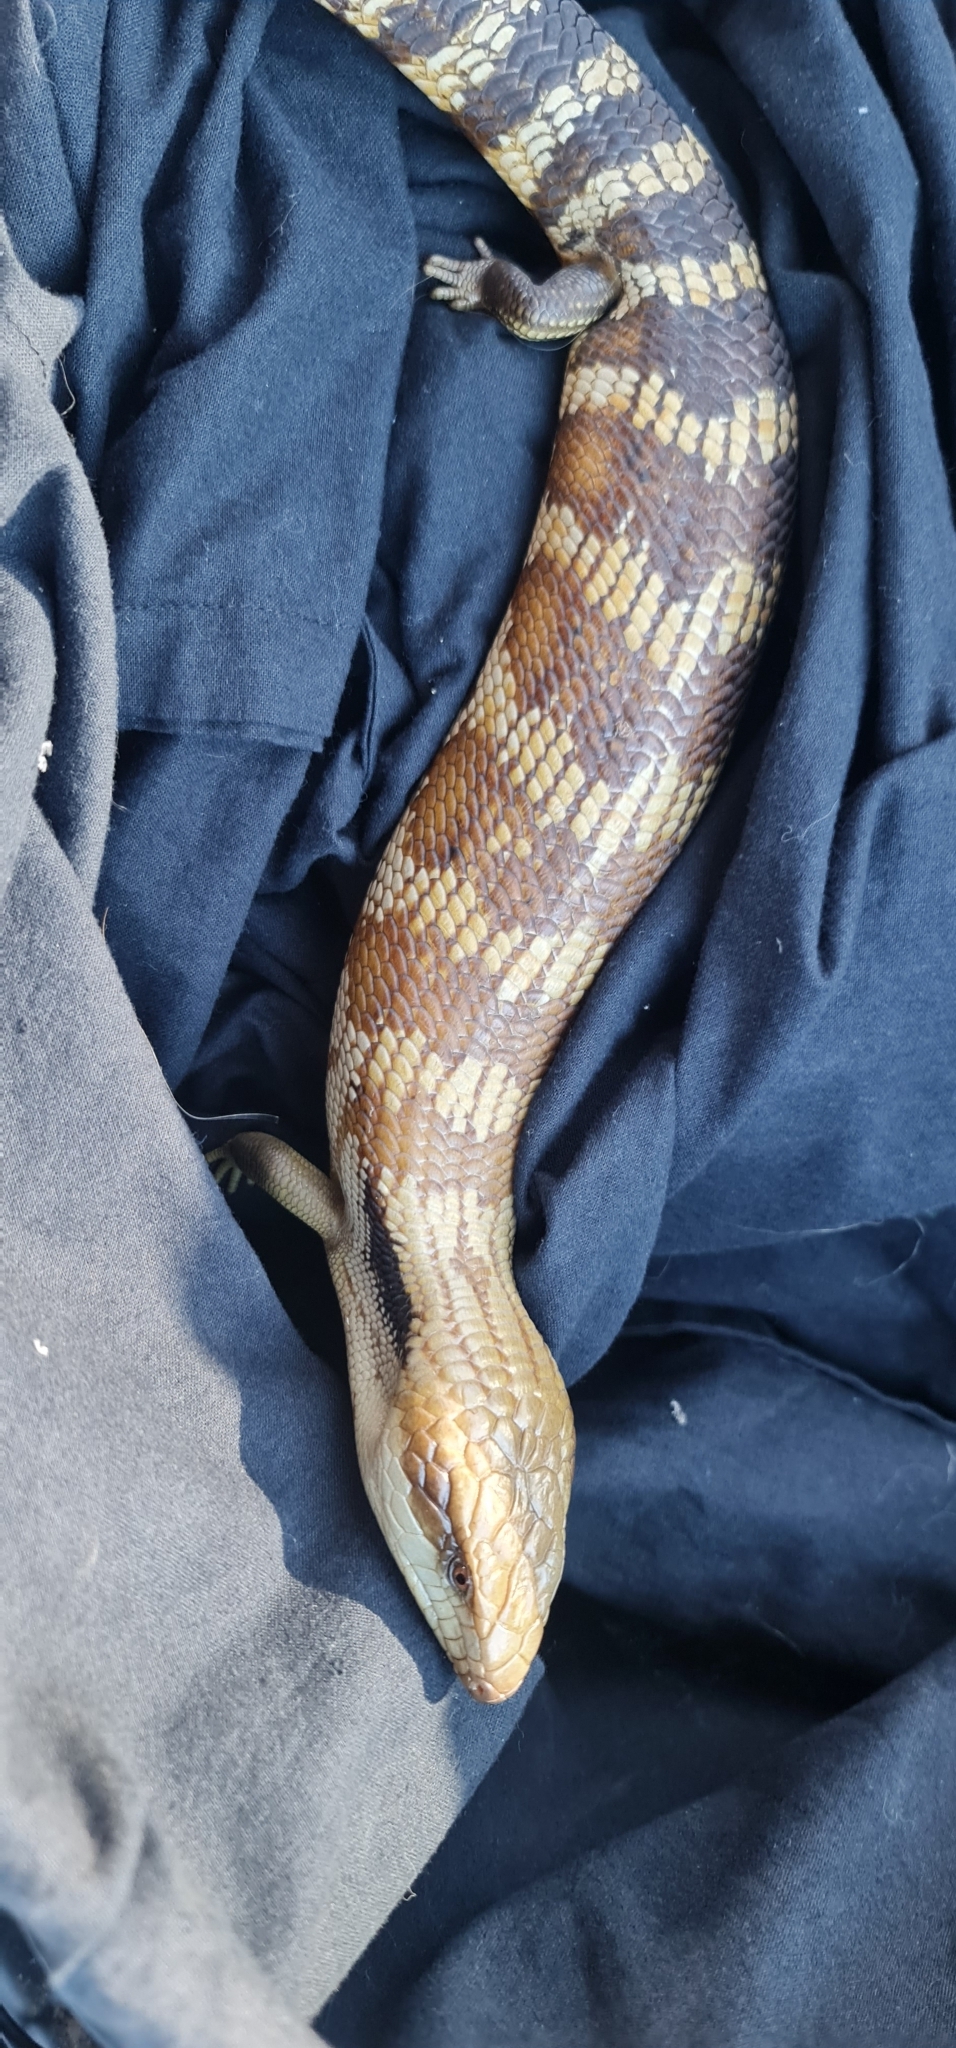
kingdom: Animalia
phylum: Chordata
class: Squamata
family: Scincidae
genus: Tiliqua
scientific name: Tiliqua scincoides
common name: Common bluetongue
